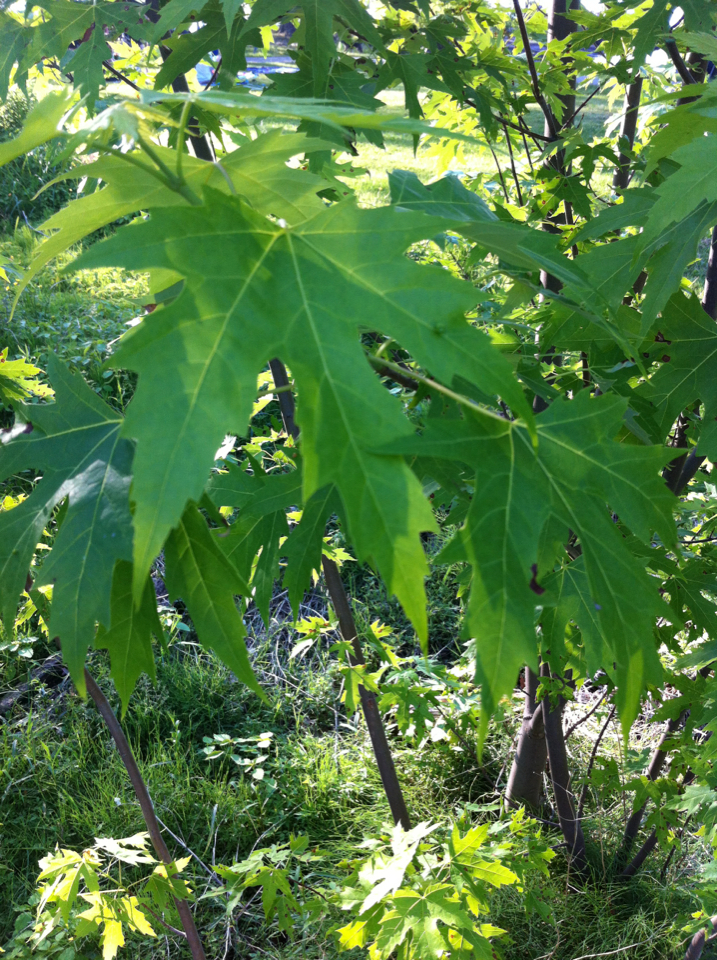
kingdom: Plantae
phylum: Tracheophyta
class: Magnoliopsida
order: Sapindales
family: Sapindaceae
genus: Acer
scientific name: Acer saccharinum
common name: Silver maple
